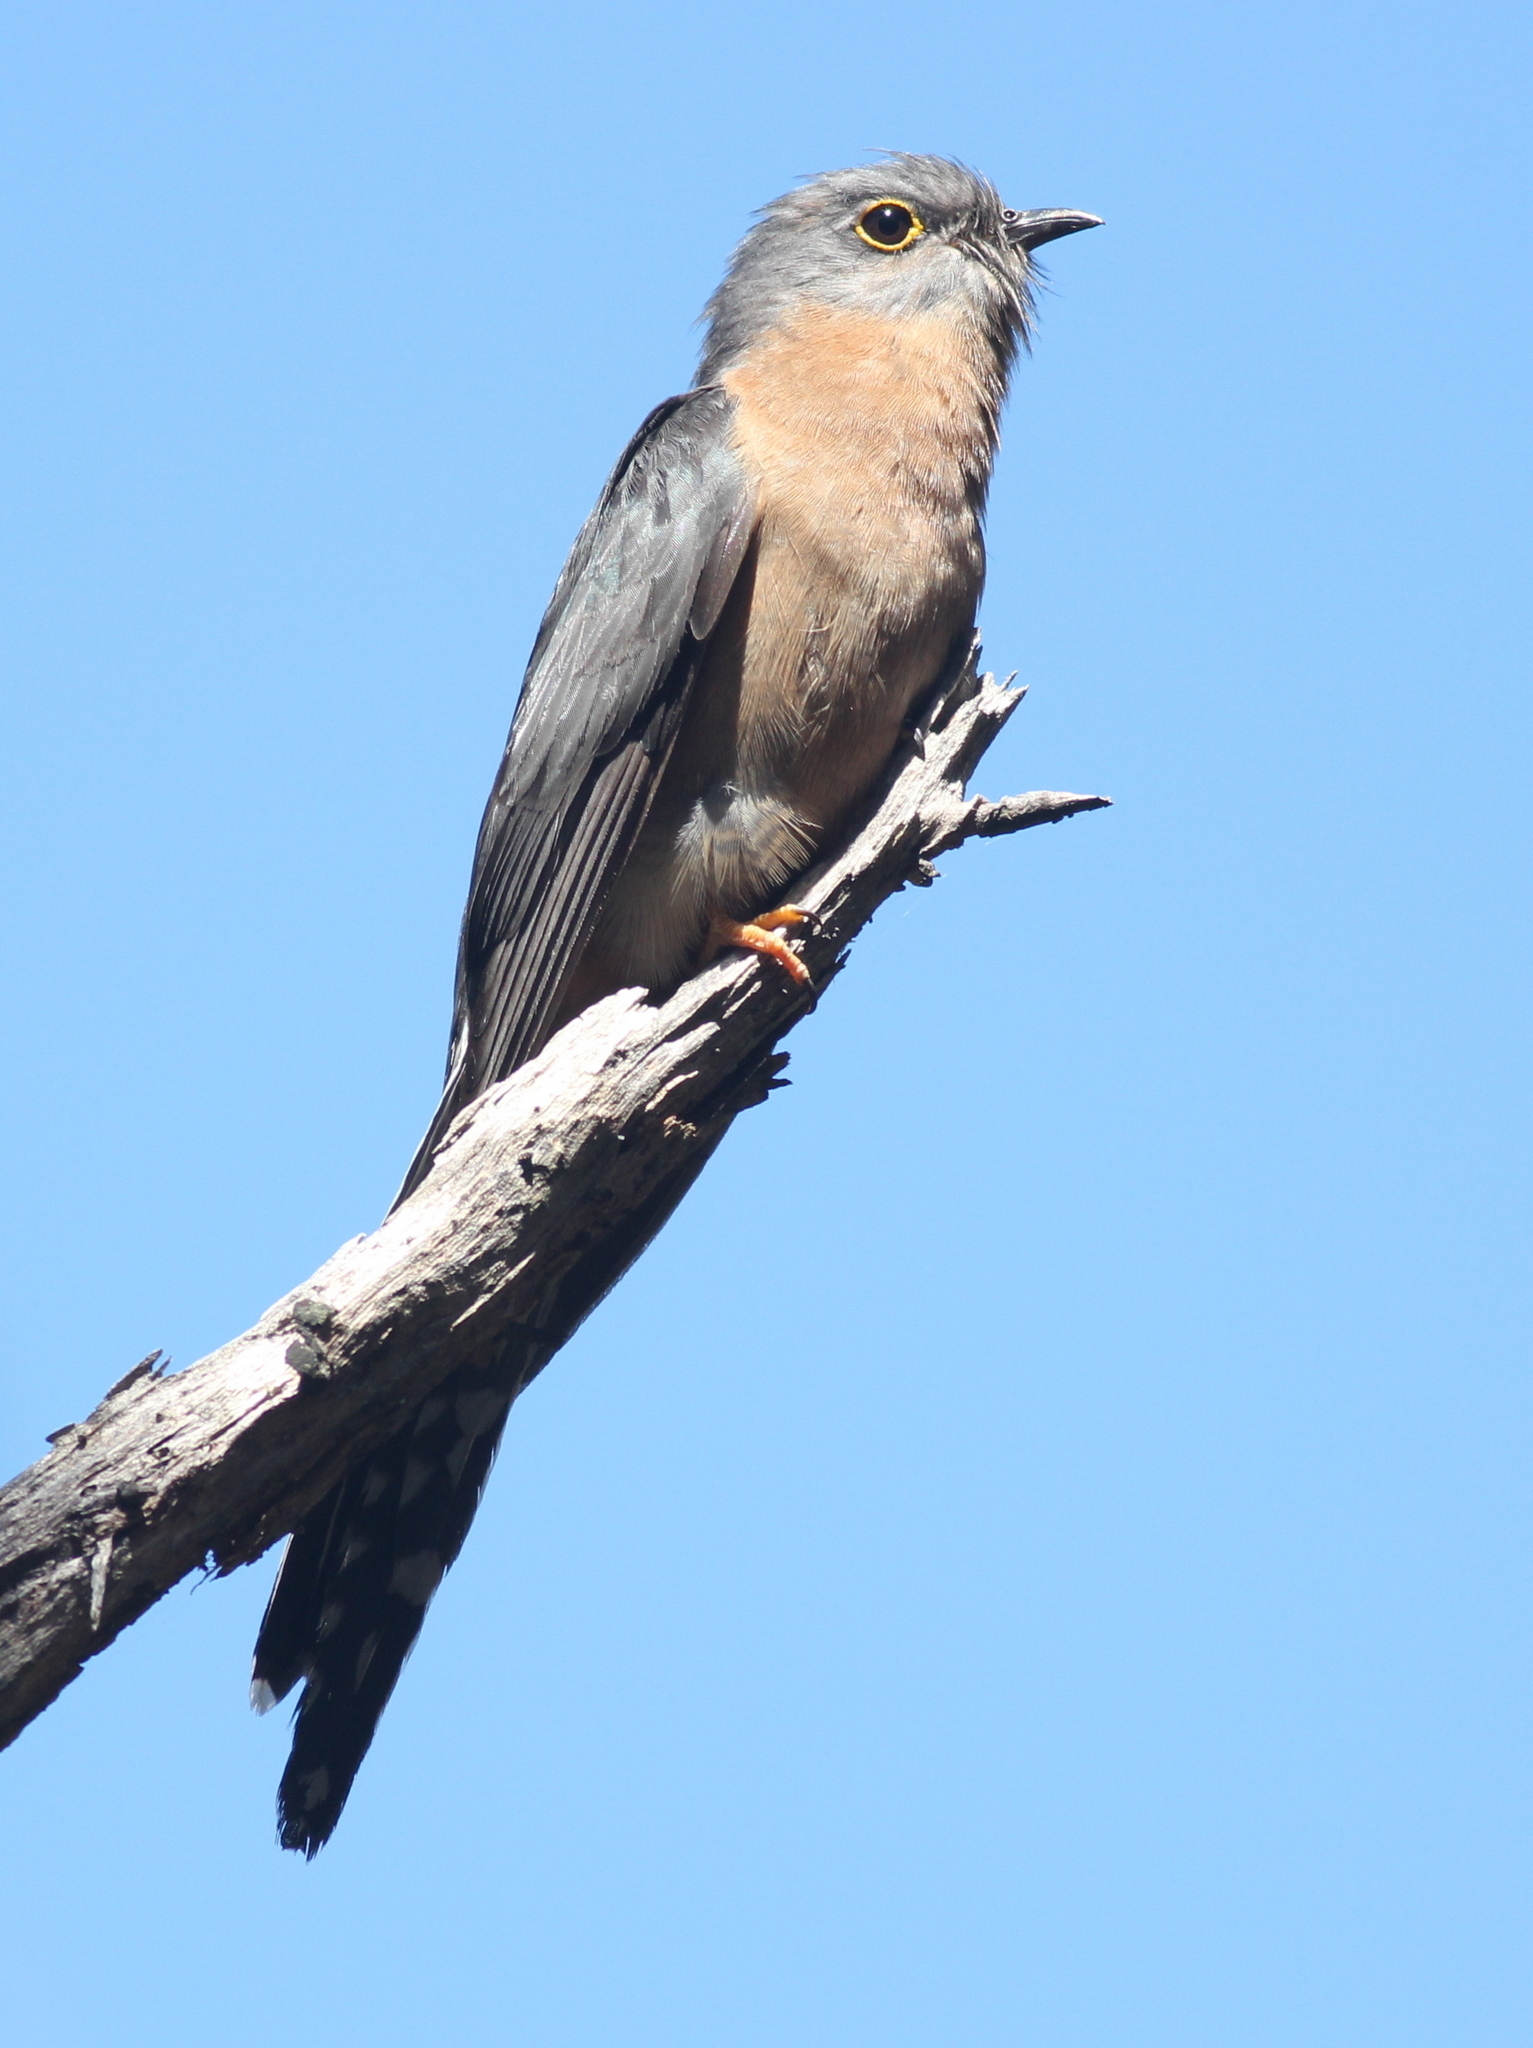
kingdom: Animalia
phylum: Chordata
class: Aves
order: Cuculiformes
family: Cuculidae
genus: Cacomantis
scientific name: Cacomantis flabelliformis
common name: Fan-tailed cuckoo
